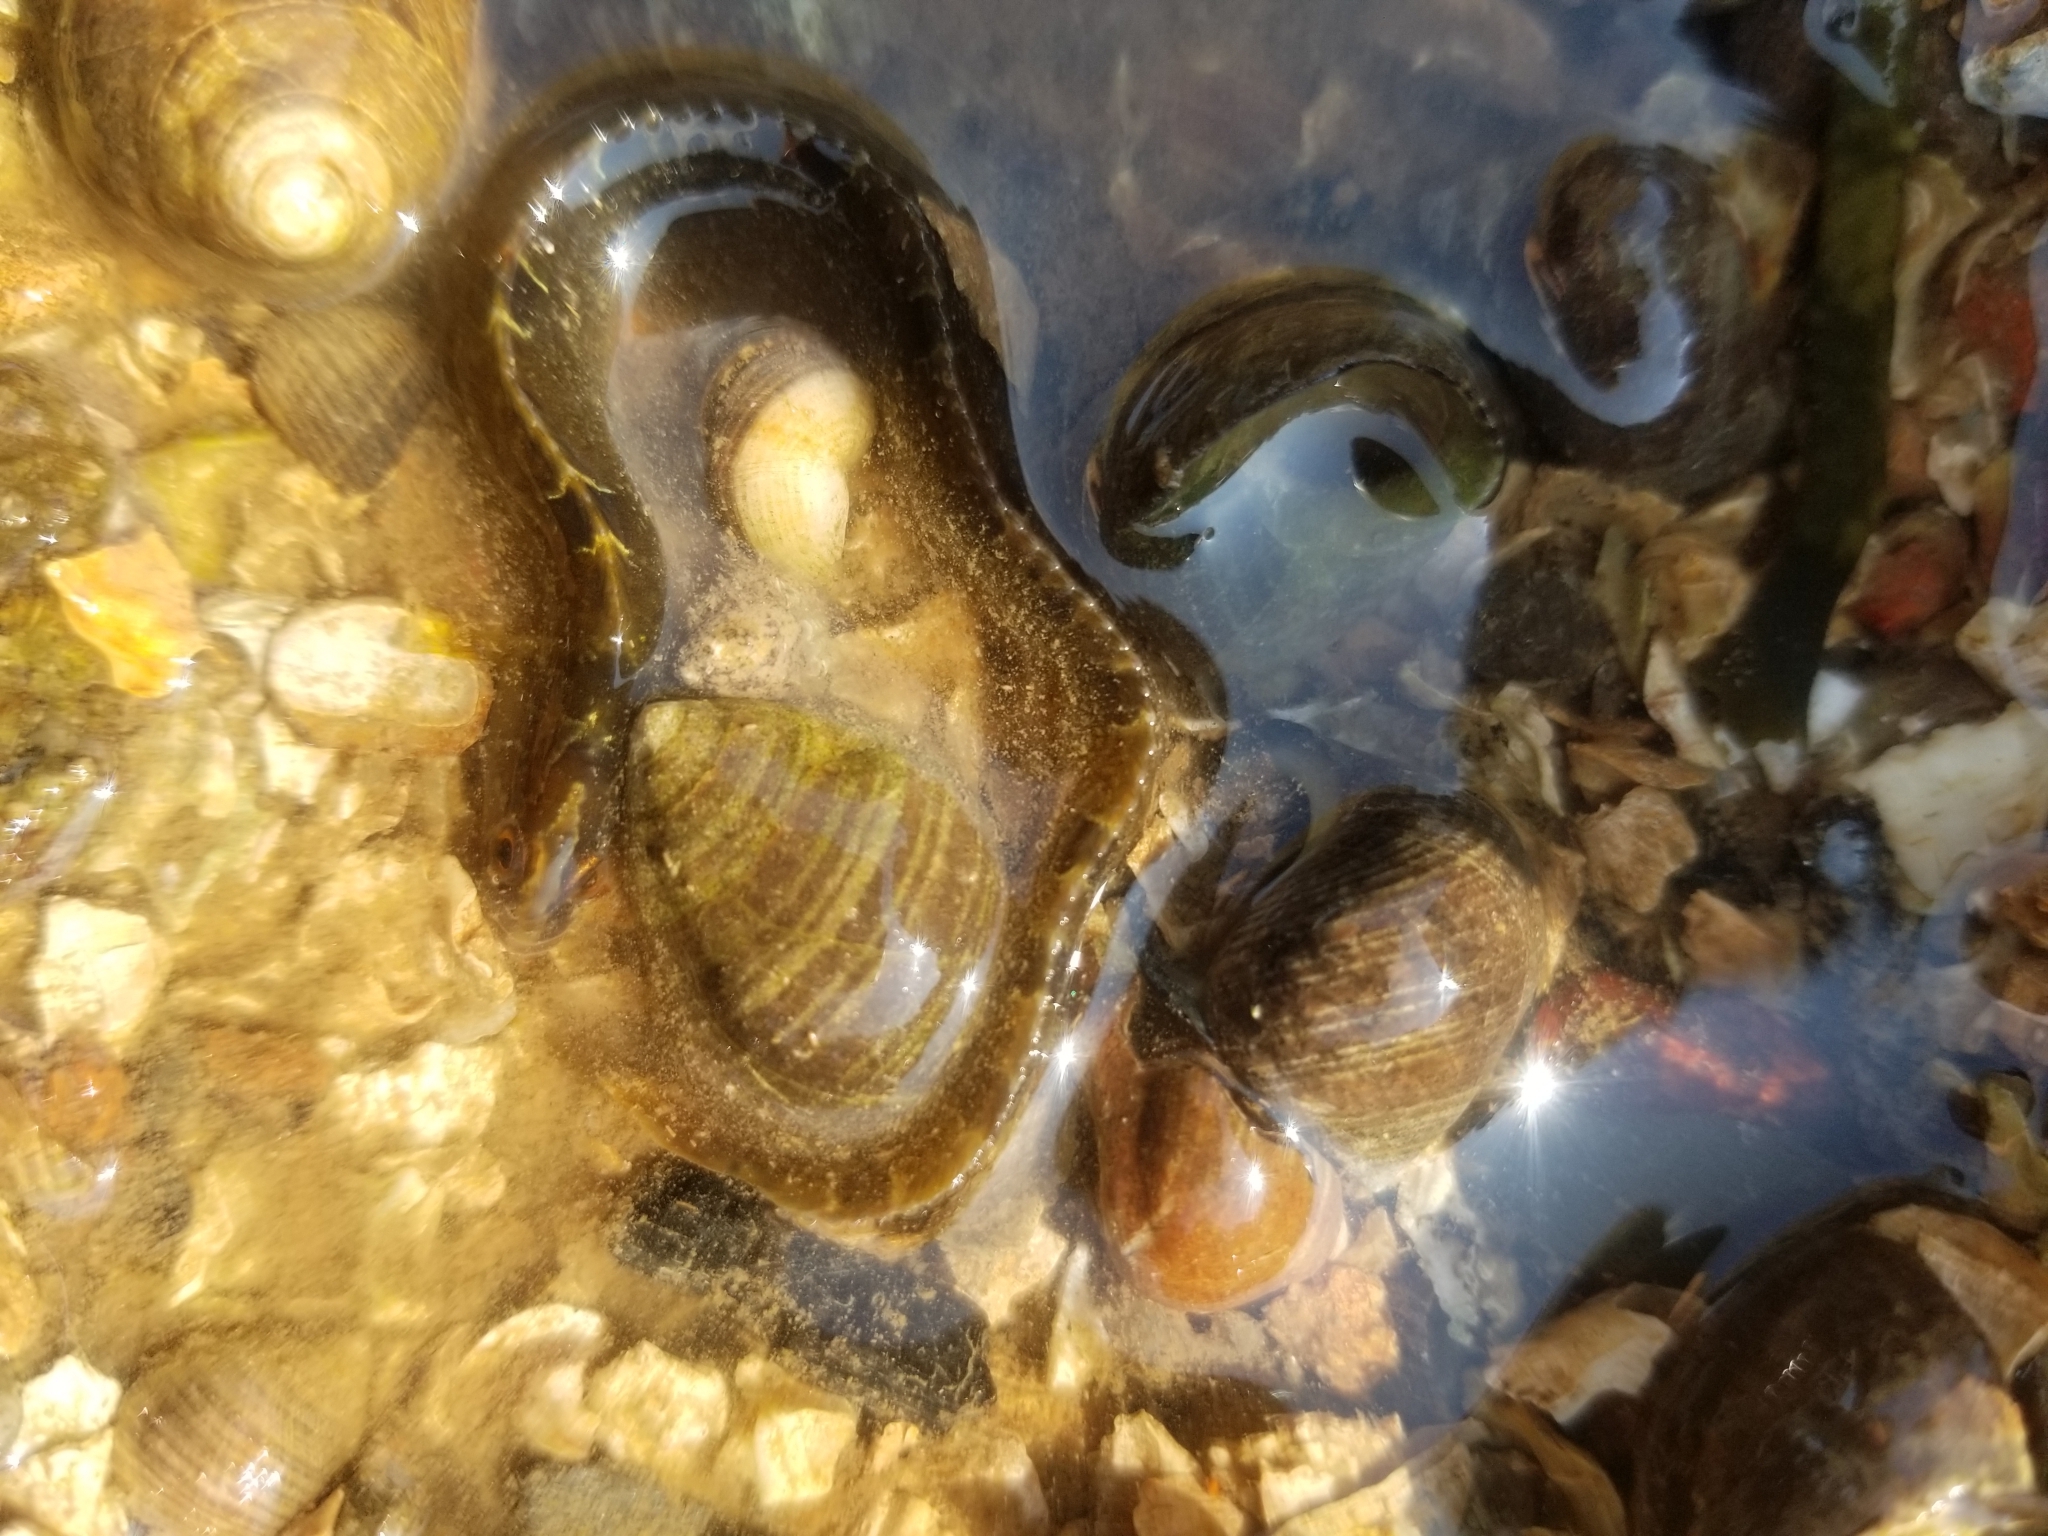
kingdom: Animalia
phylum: Chordata
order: Perciformes
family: Pholidae
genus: Pholis
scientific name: Pholis gunnellus
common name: Butterfish
